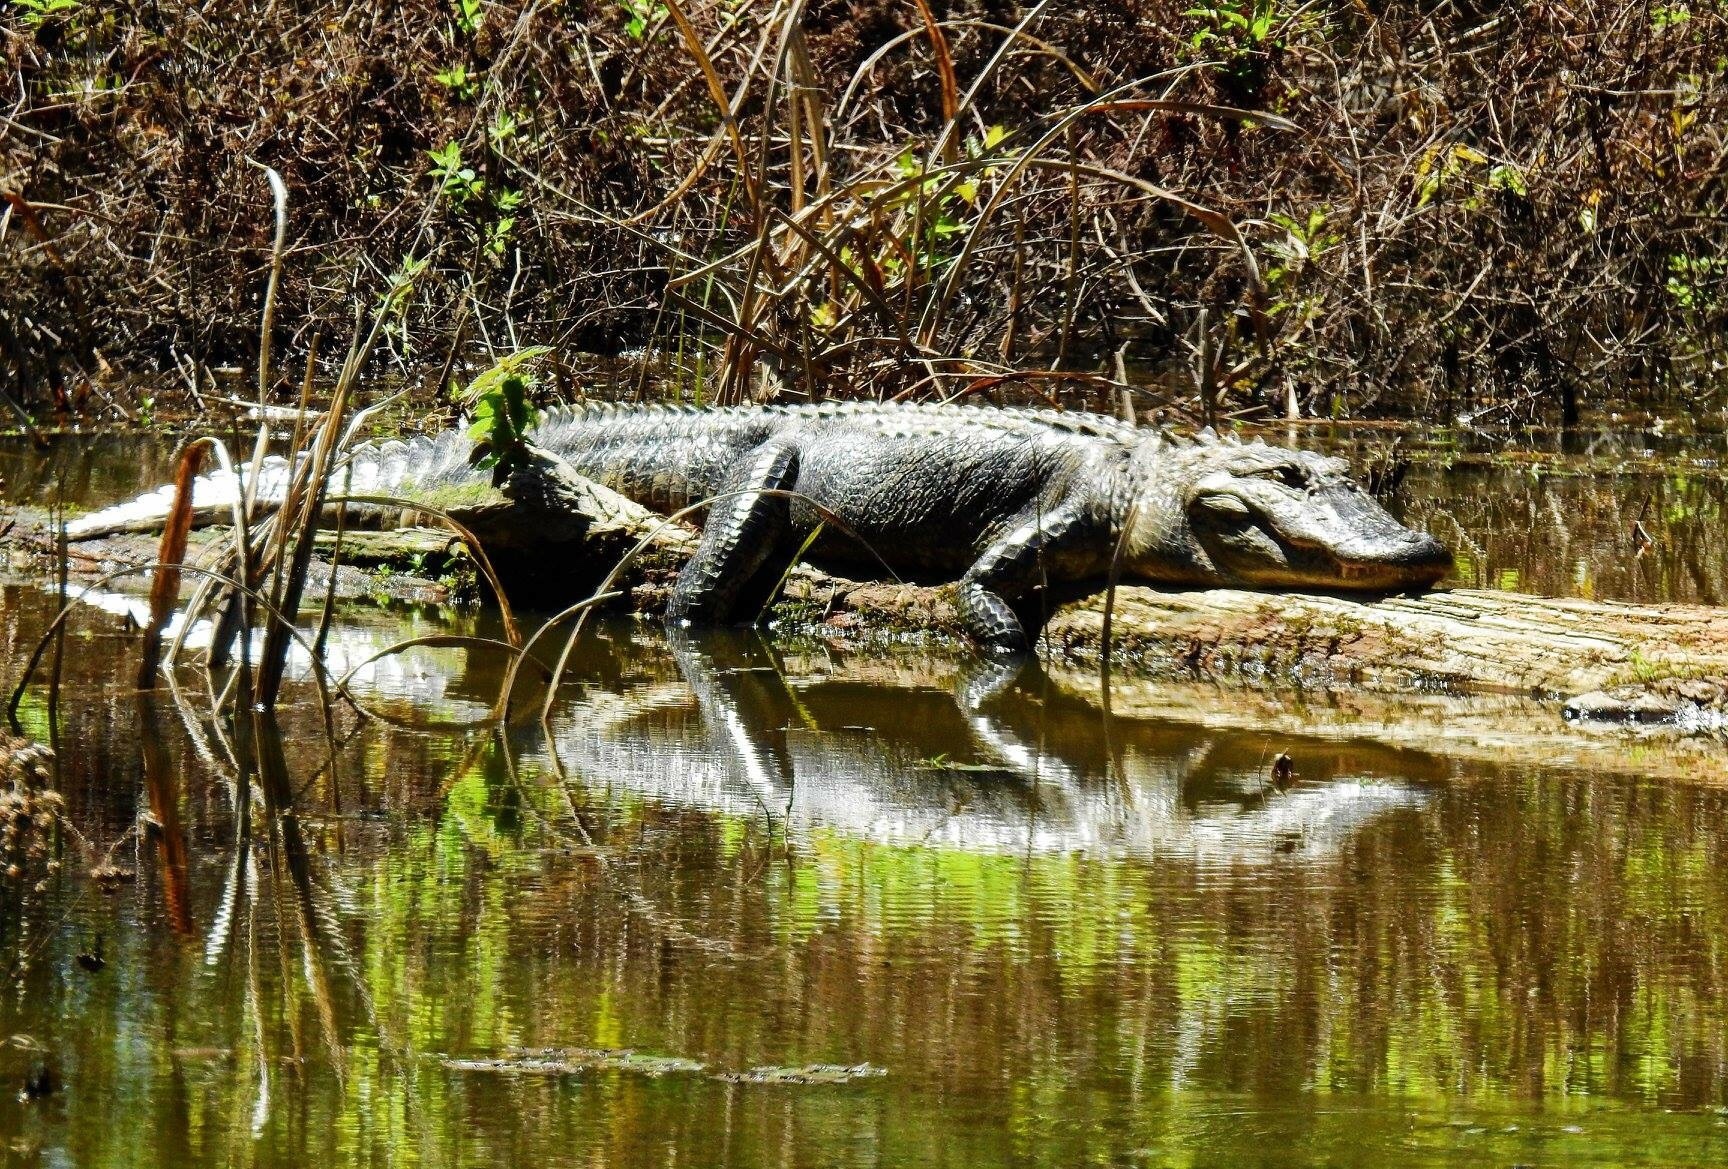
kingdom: Animalia
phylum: Chordata
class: Crocodylia
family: Alligatoridae
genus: Alligator
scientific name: Alligator mississippiensis
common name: American alligator
